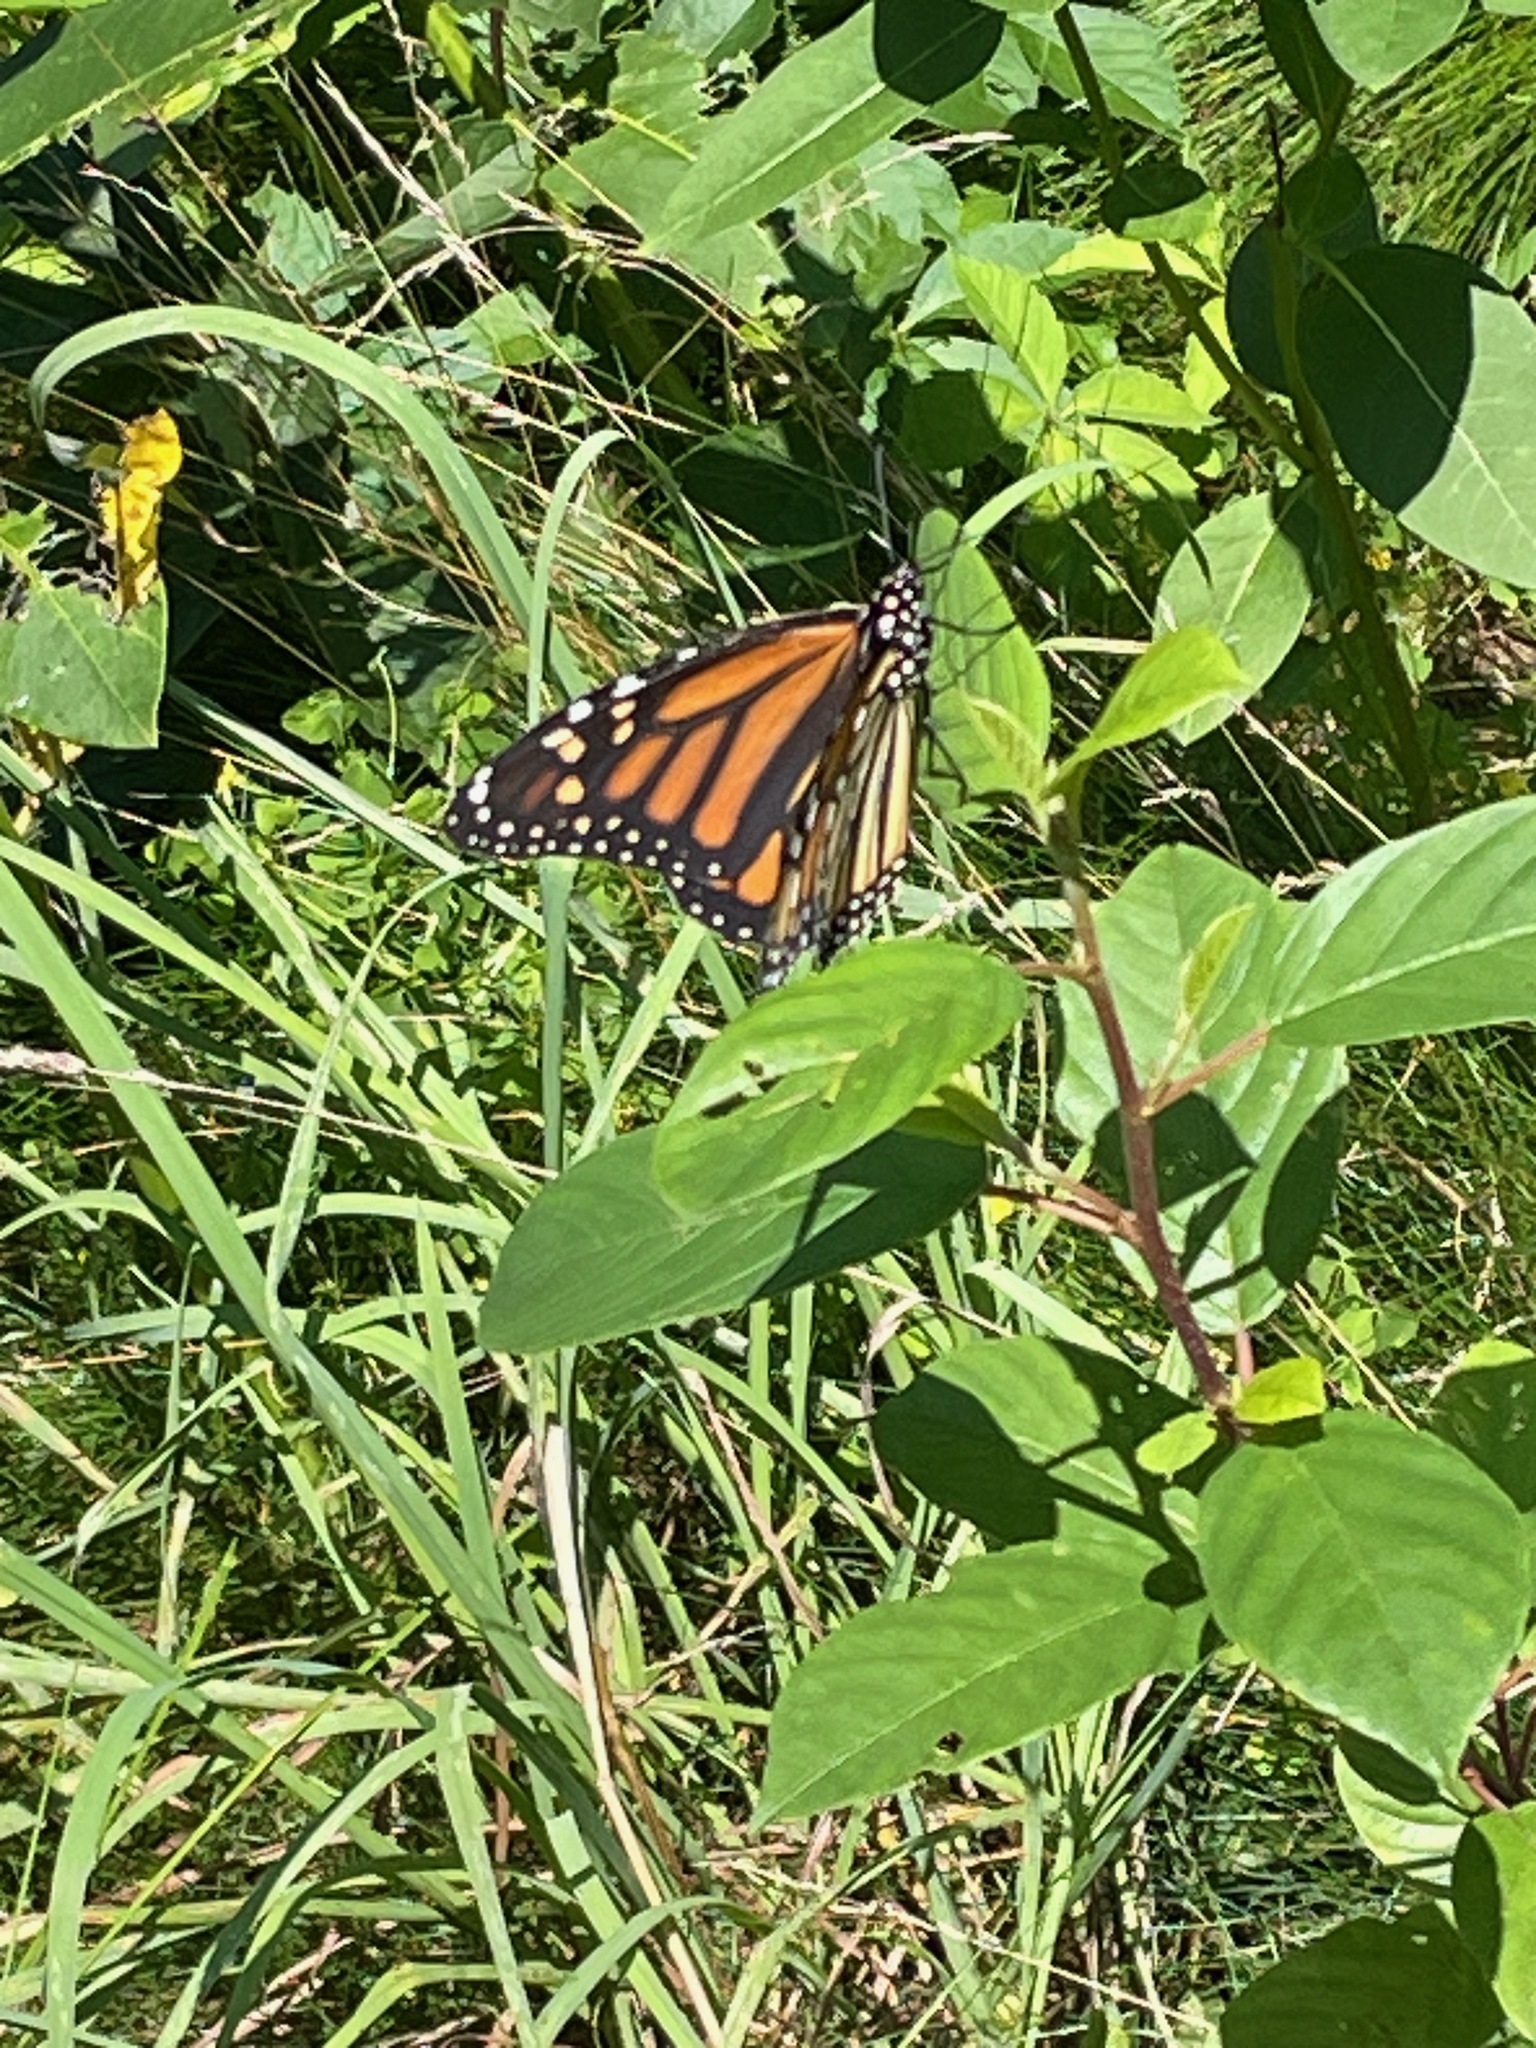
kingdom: Animalia
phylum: Arthropoda
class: Insecta
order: Lepidoptera
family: Nymphalidae
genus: Danaus
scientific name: Danaus plexippus
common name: Monarch
